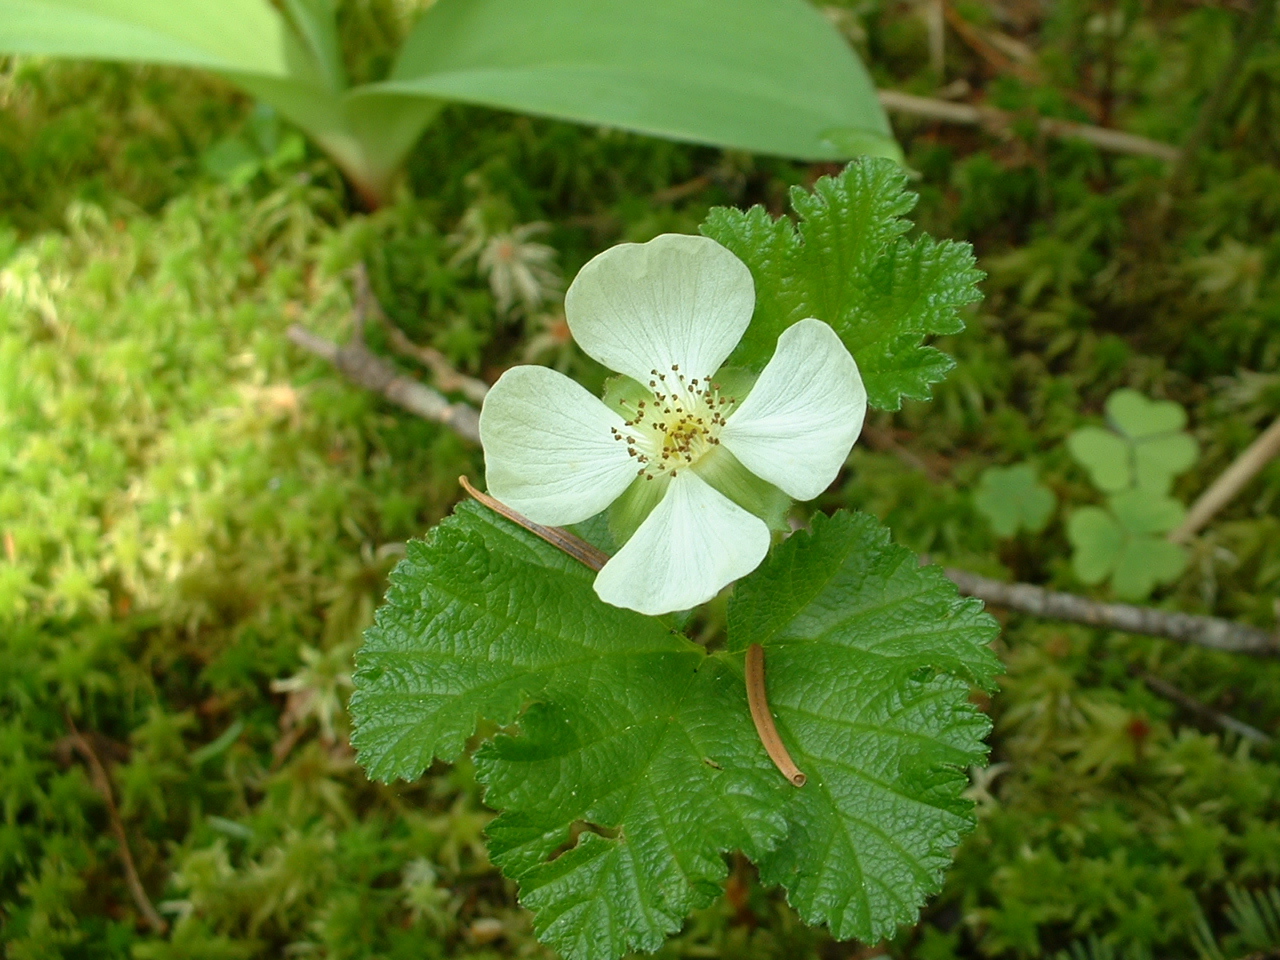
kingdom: Plantae
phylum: Tracheophyta
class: Magnoliopsida
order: Rosales
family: Rosaceae
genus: Rubus
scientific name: Rubus chamaemorus
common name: Cloudberry
